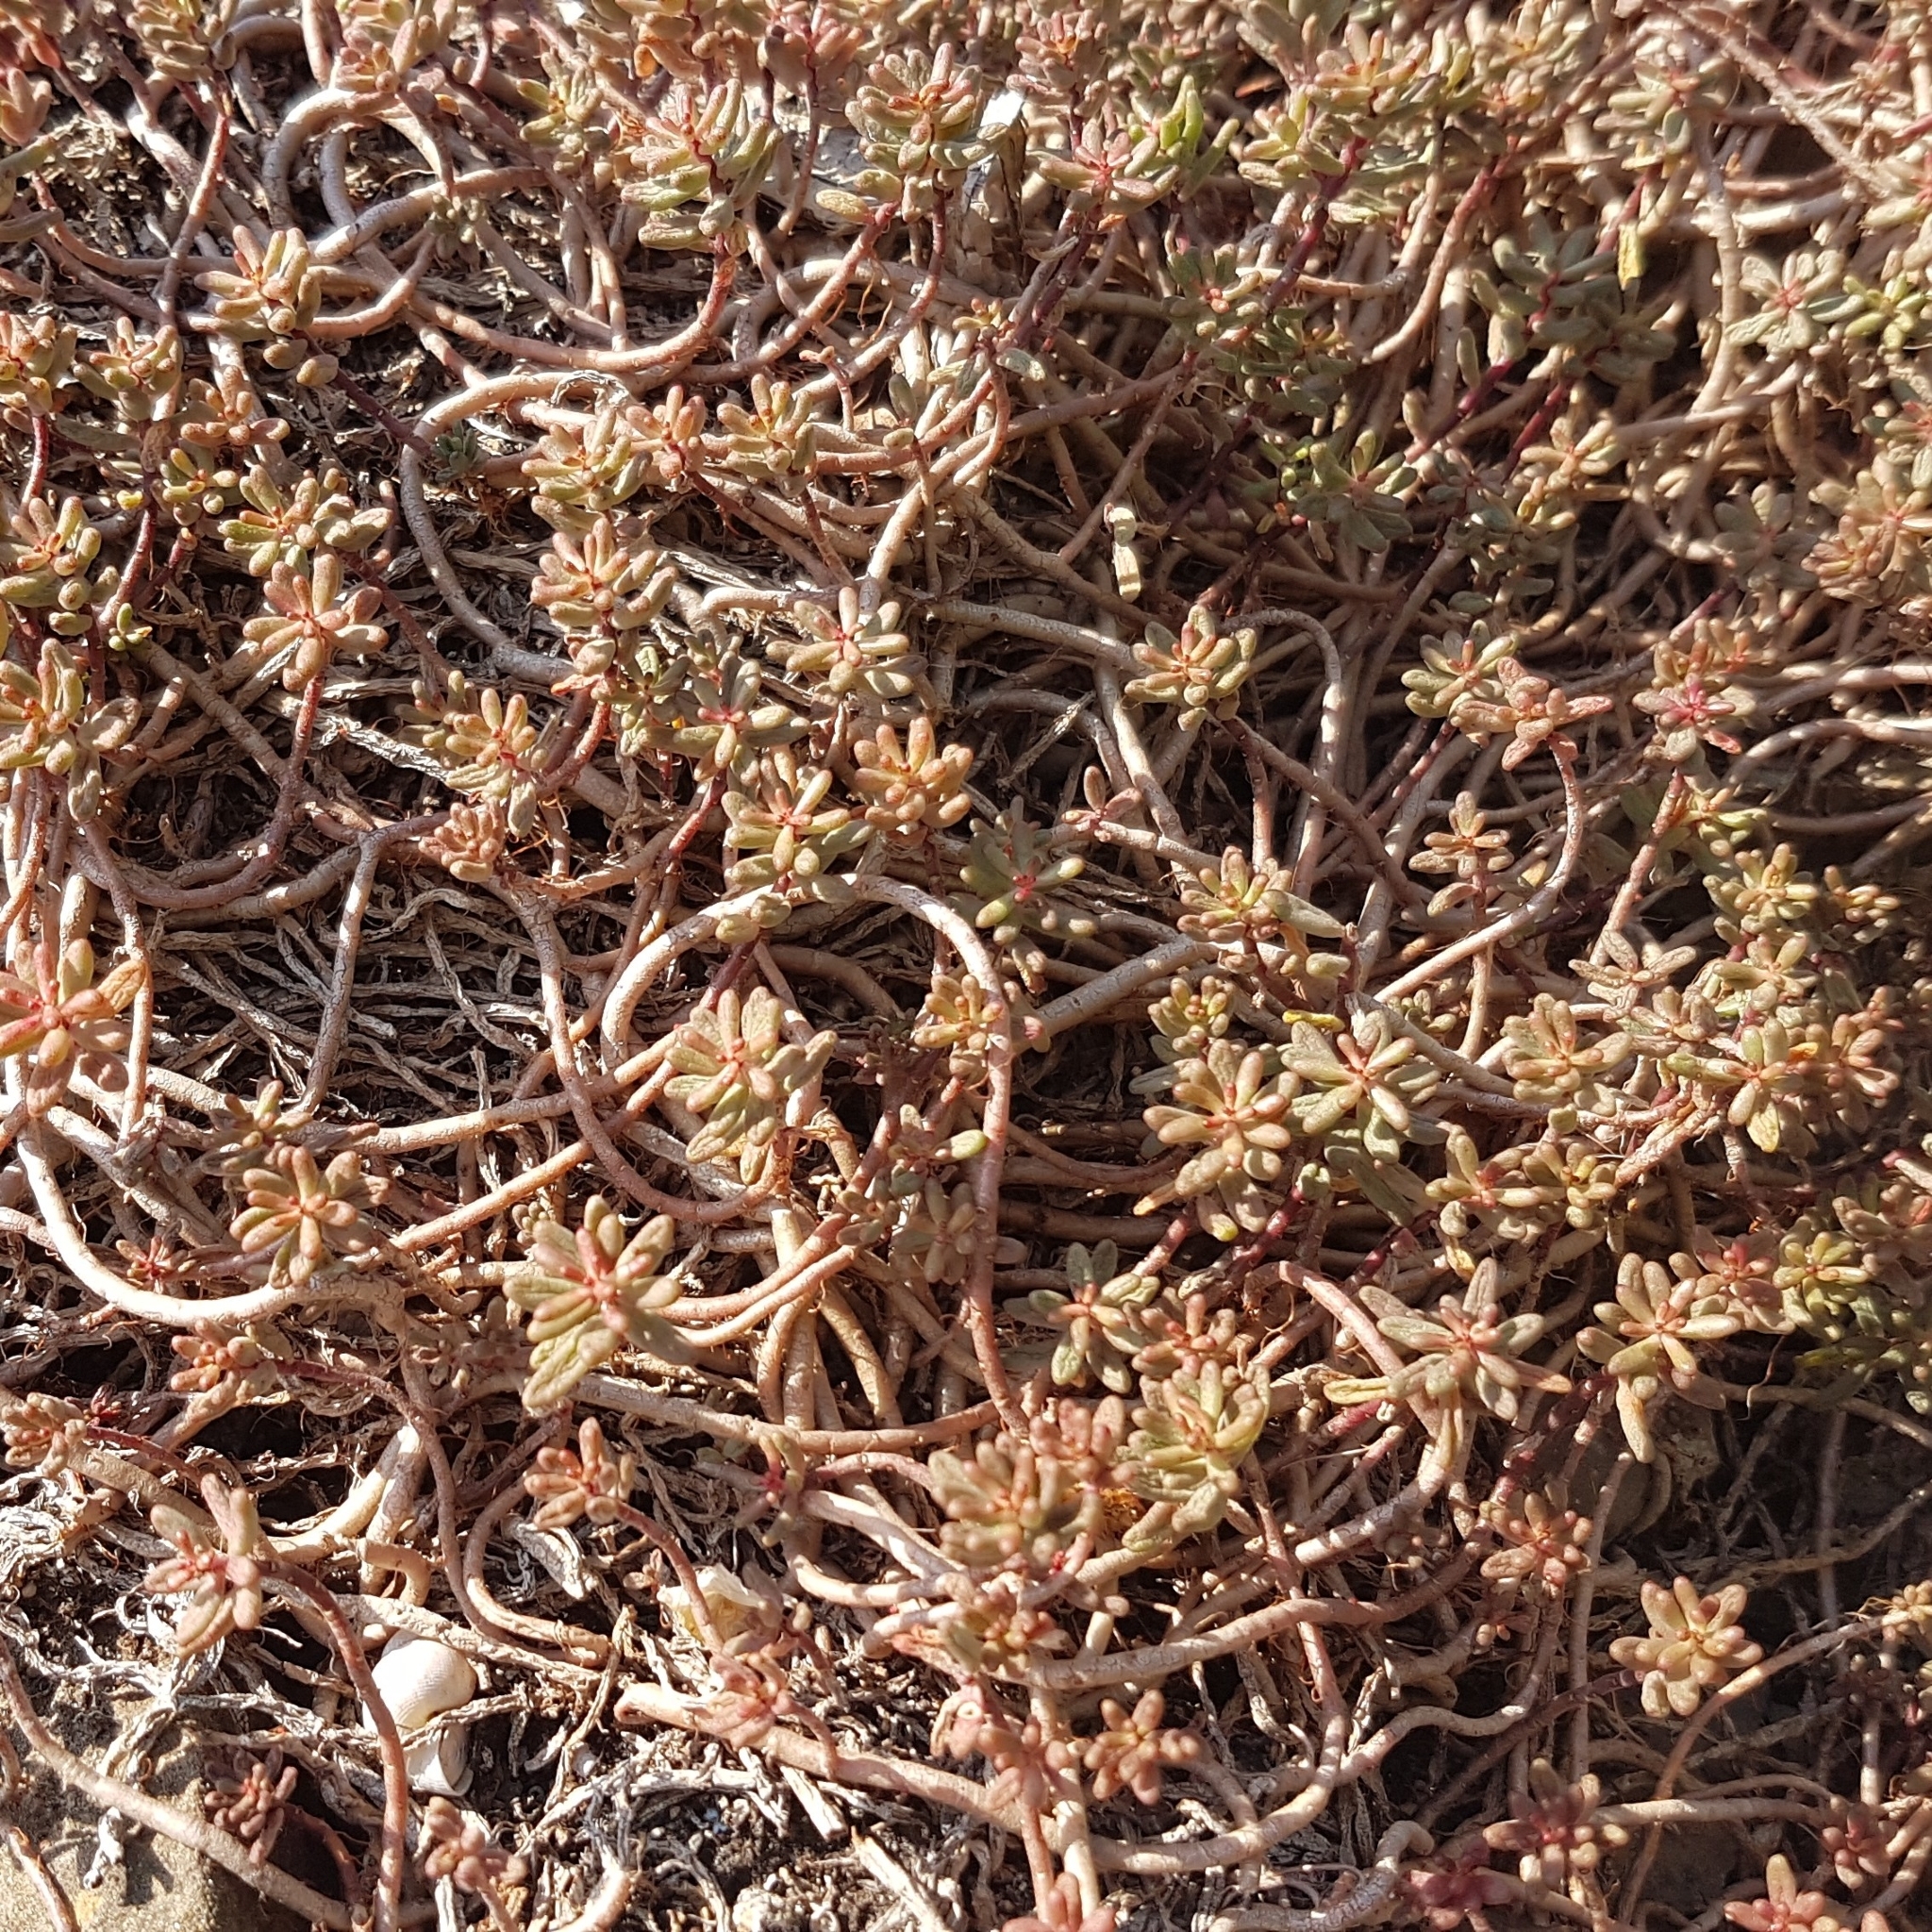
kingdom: Plantae
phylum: Tracheophyta
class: Magnoliopsida
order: Saxifragales
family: Crassulaceae
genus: Sedum
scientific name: Sedum album
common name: White stonecrop
